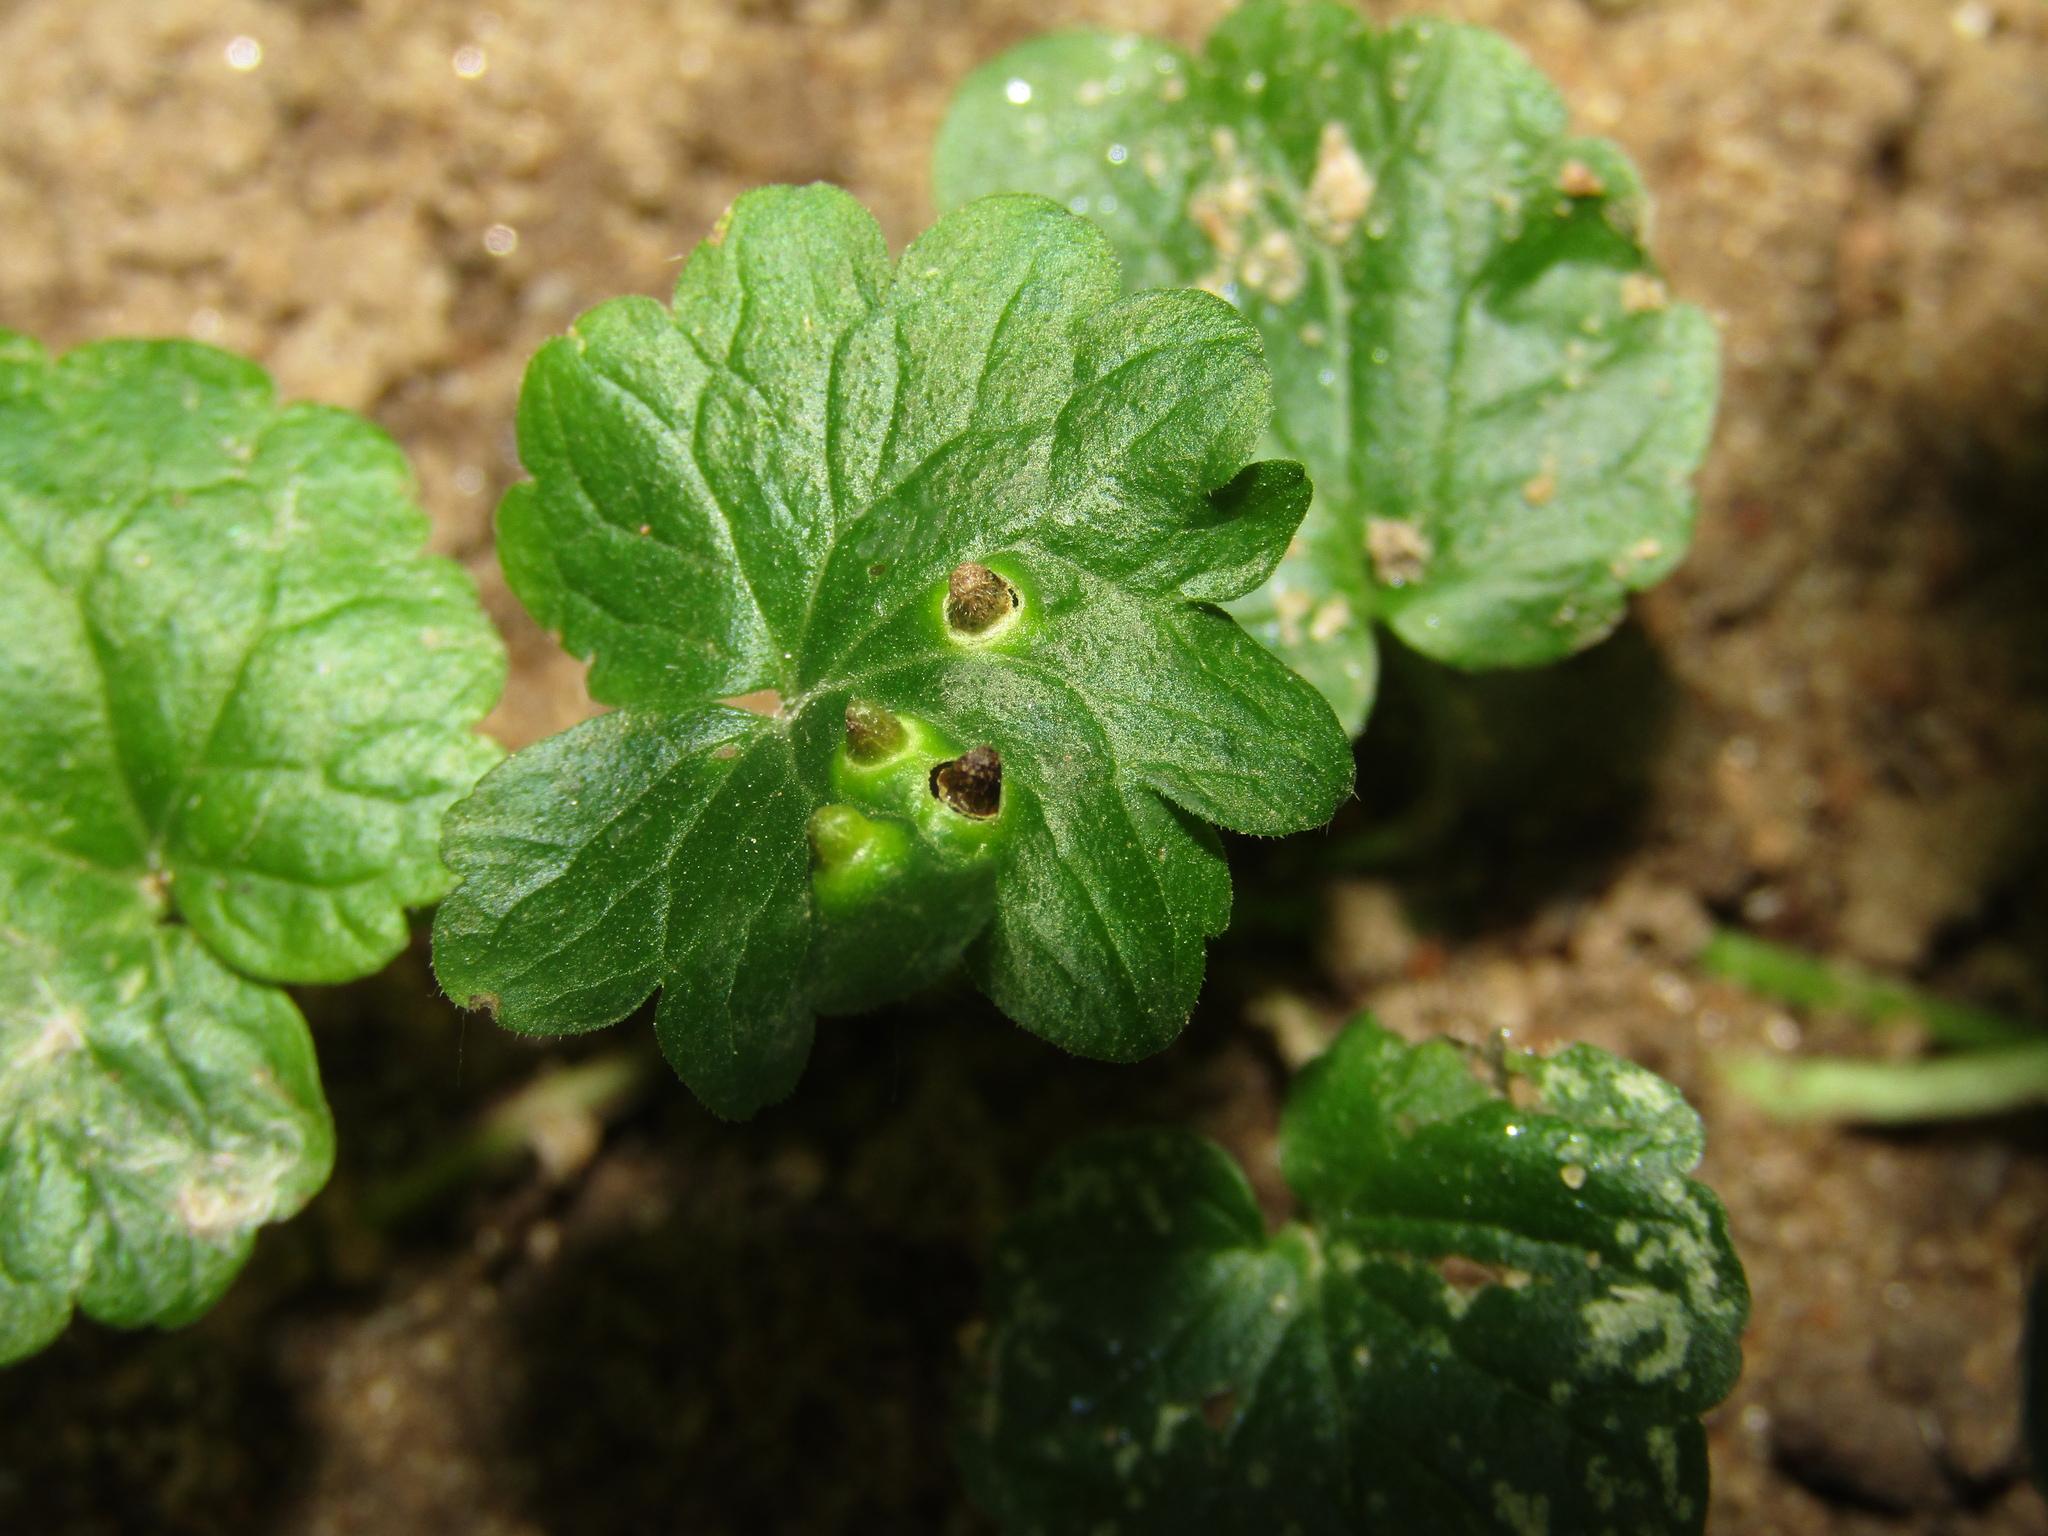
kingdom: Animalia
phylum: Arthropoda
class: Insecta
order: Diptera
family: Cecidomyiidae
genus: Rondaniola
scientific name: Rondaniola bursaria
